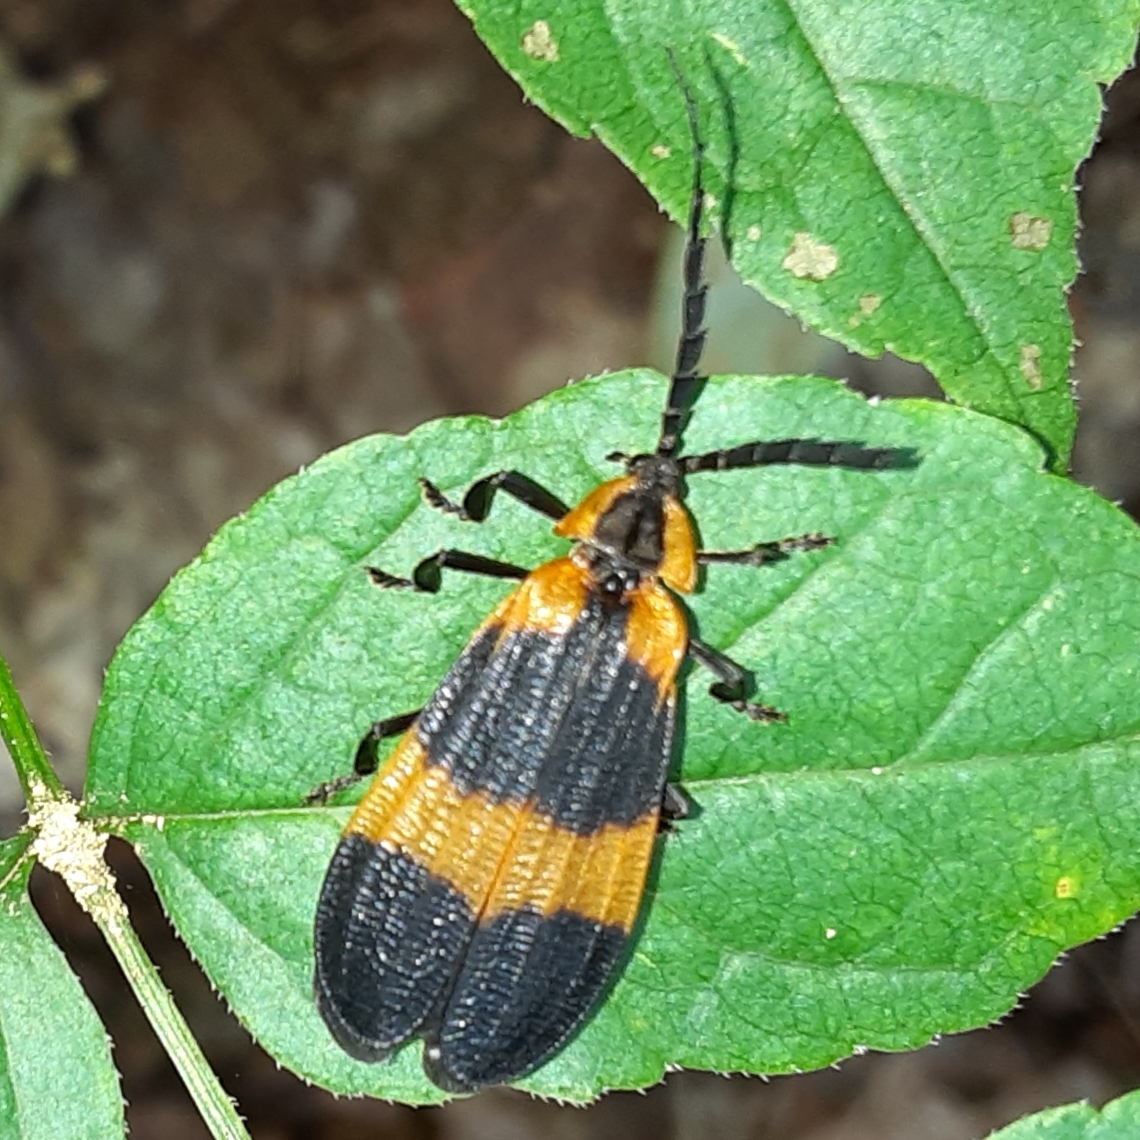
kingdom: Animalia
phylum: Arthropoda
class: Insecta
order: Coleoptera
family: Lycidae
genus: Calopteron
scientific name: Calopteron reticulatum
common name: Banded net-winged beetle
